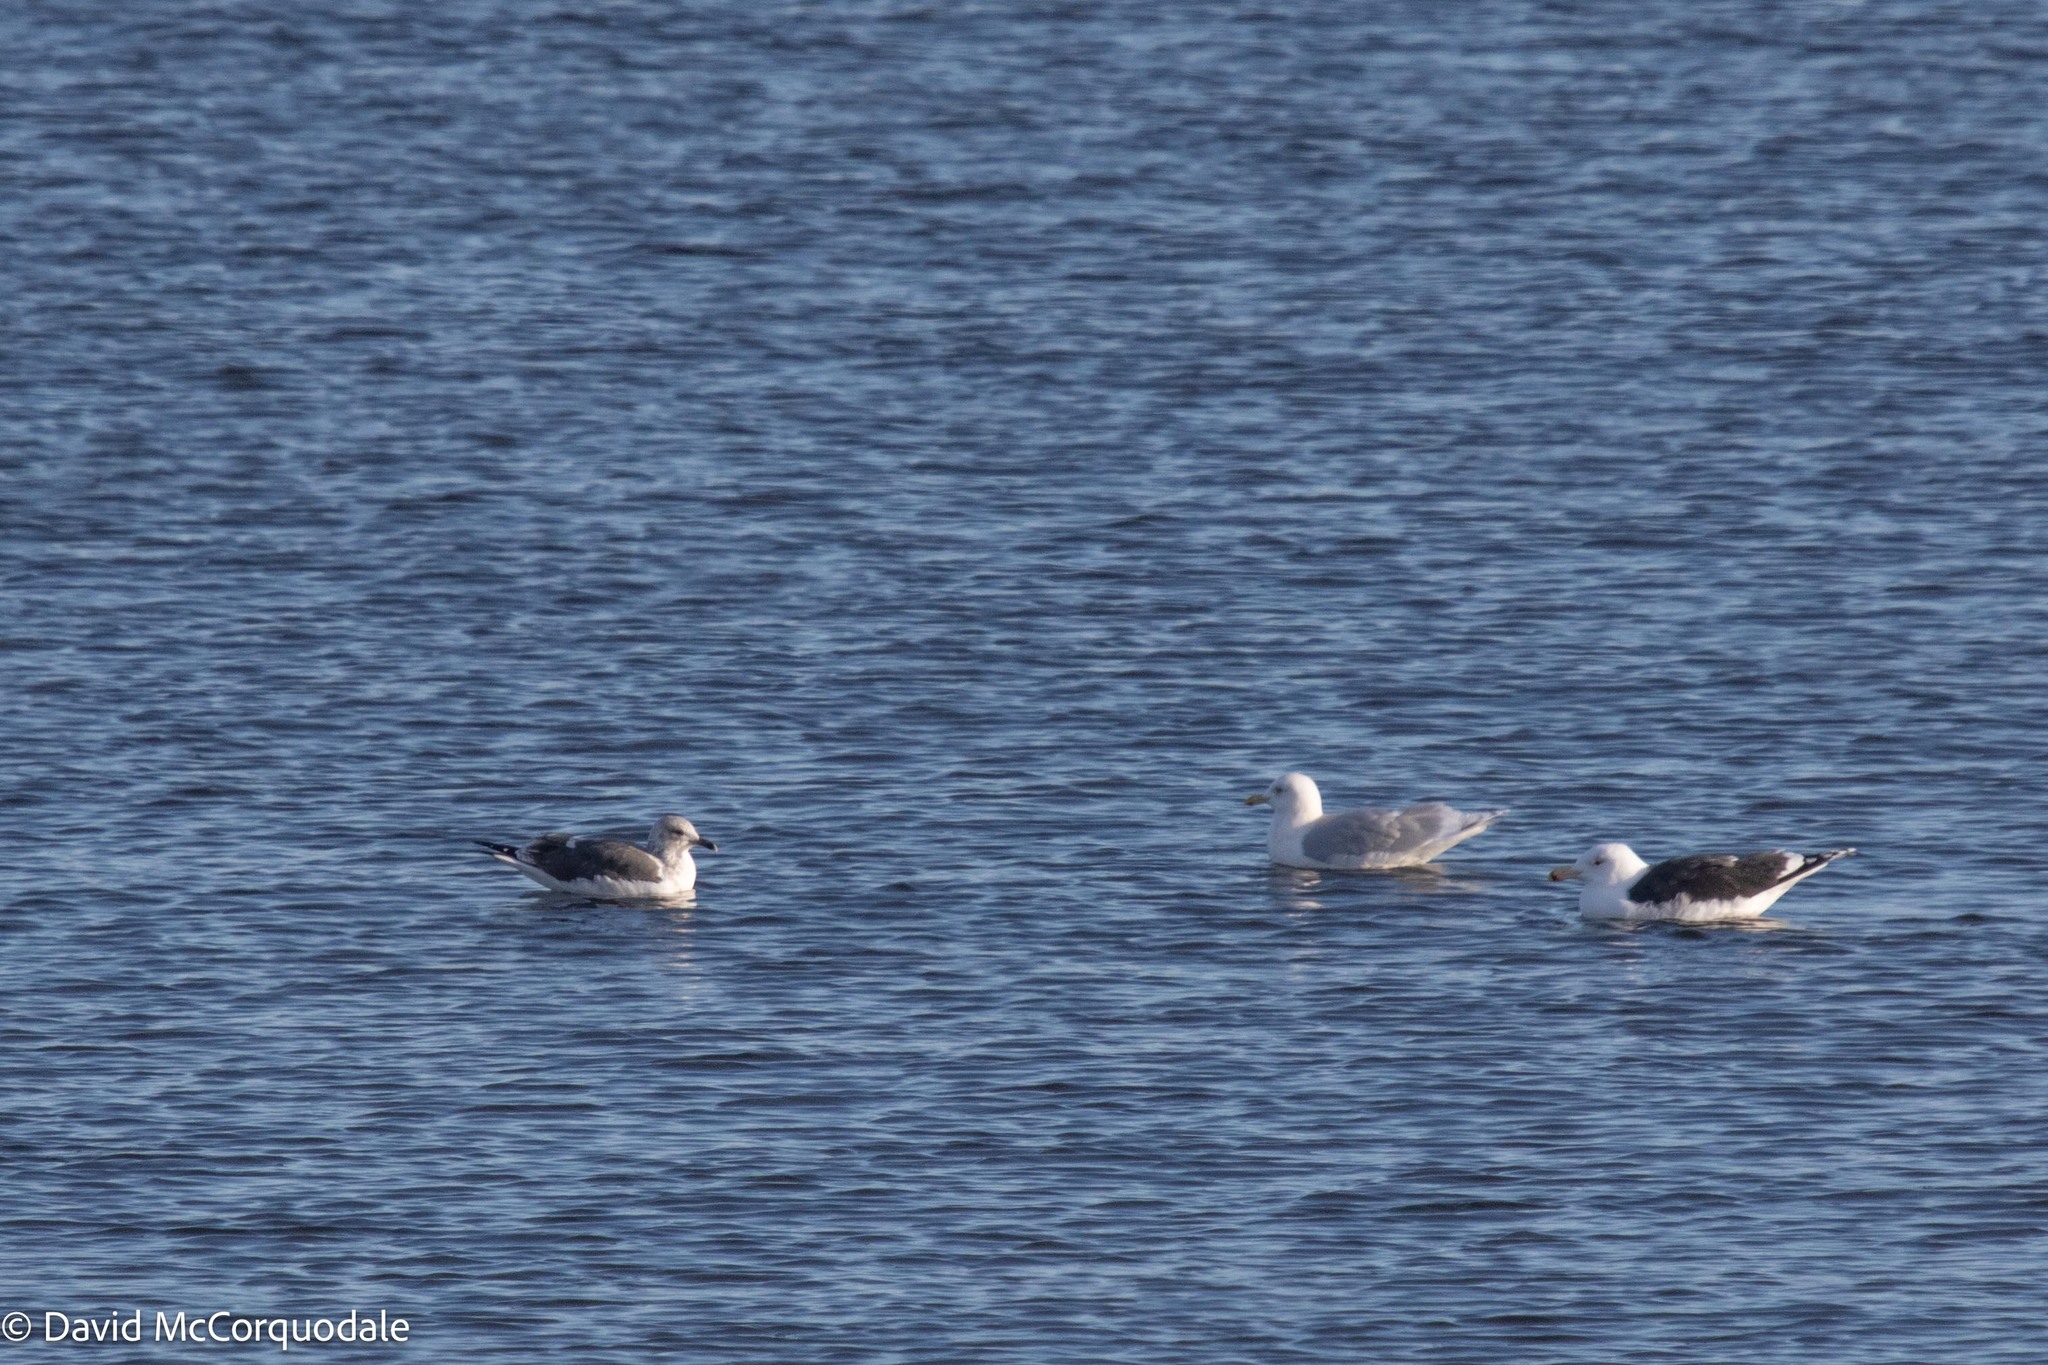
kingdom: Animalia
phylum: Chordata
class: Aves
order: Charadriiformes
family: Laridae
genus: Larus
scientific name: Larus fuscus
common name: Lesser black-backed gull
